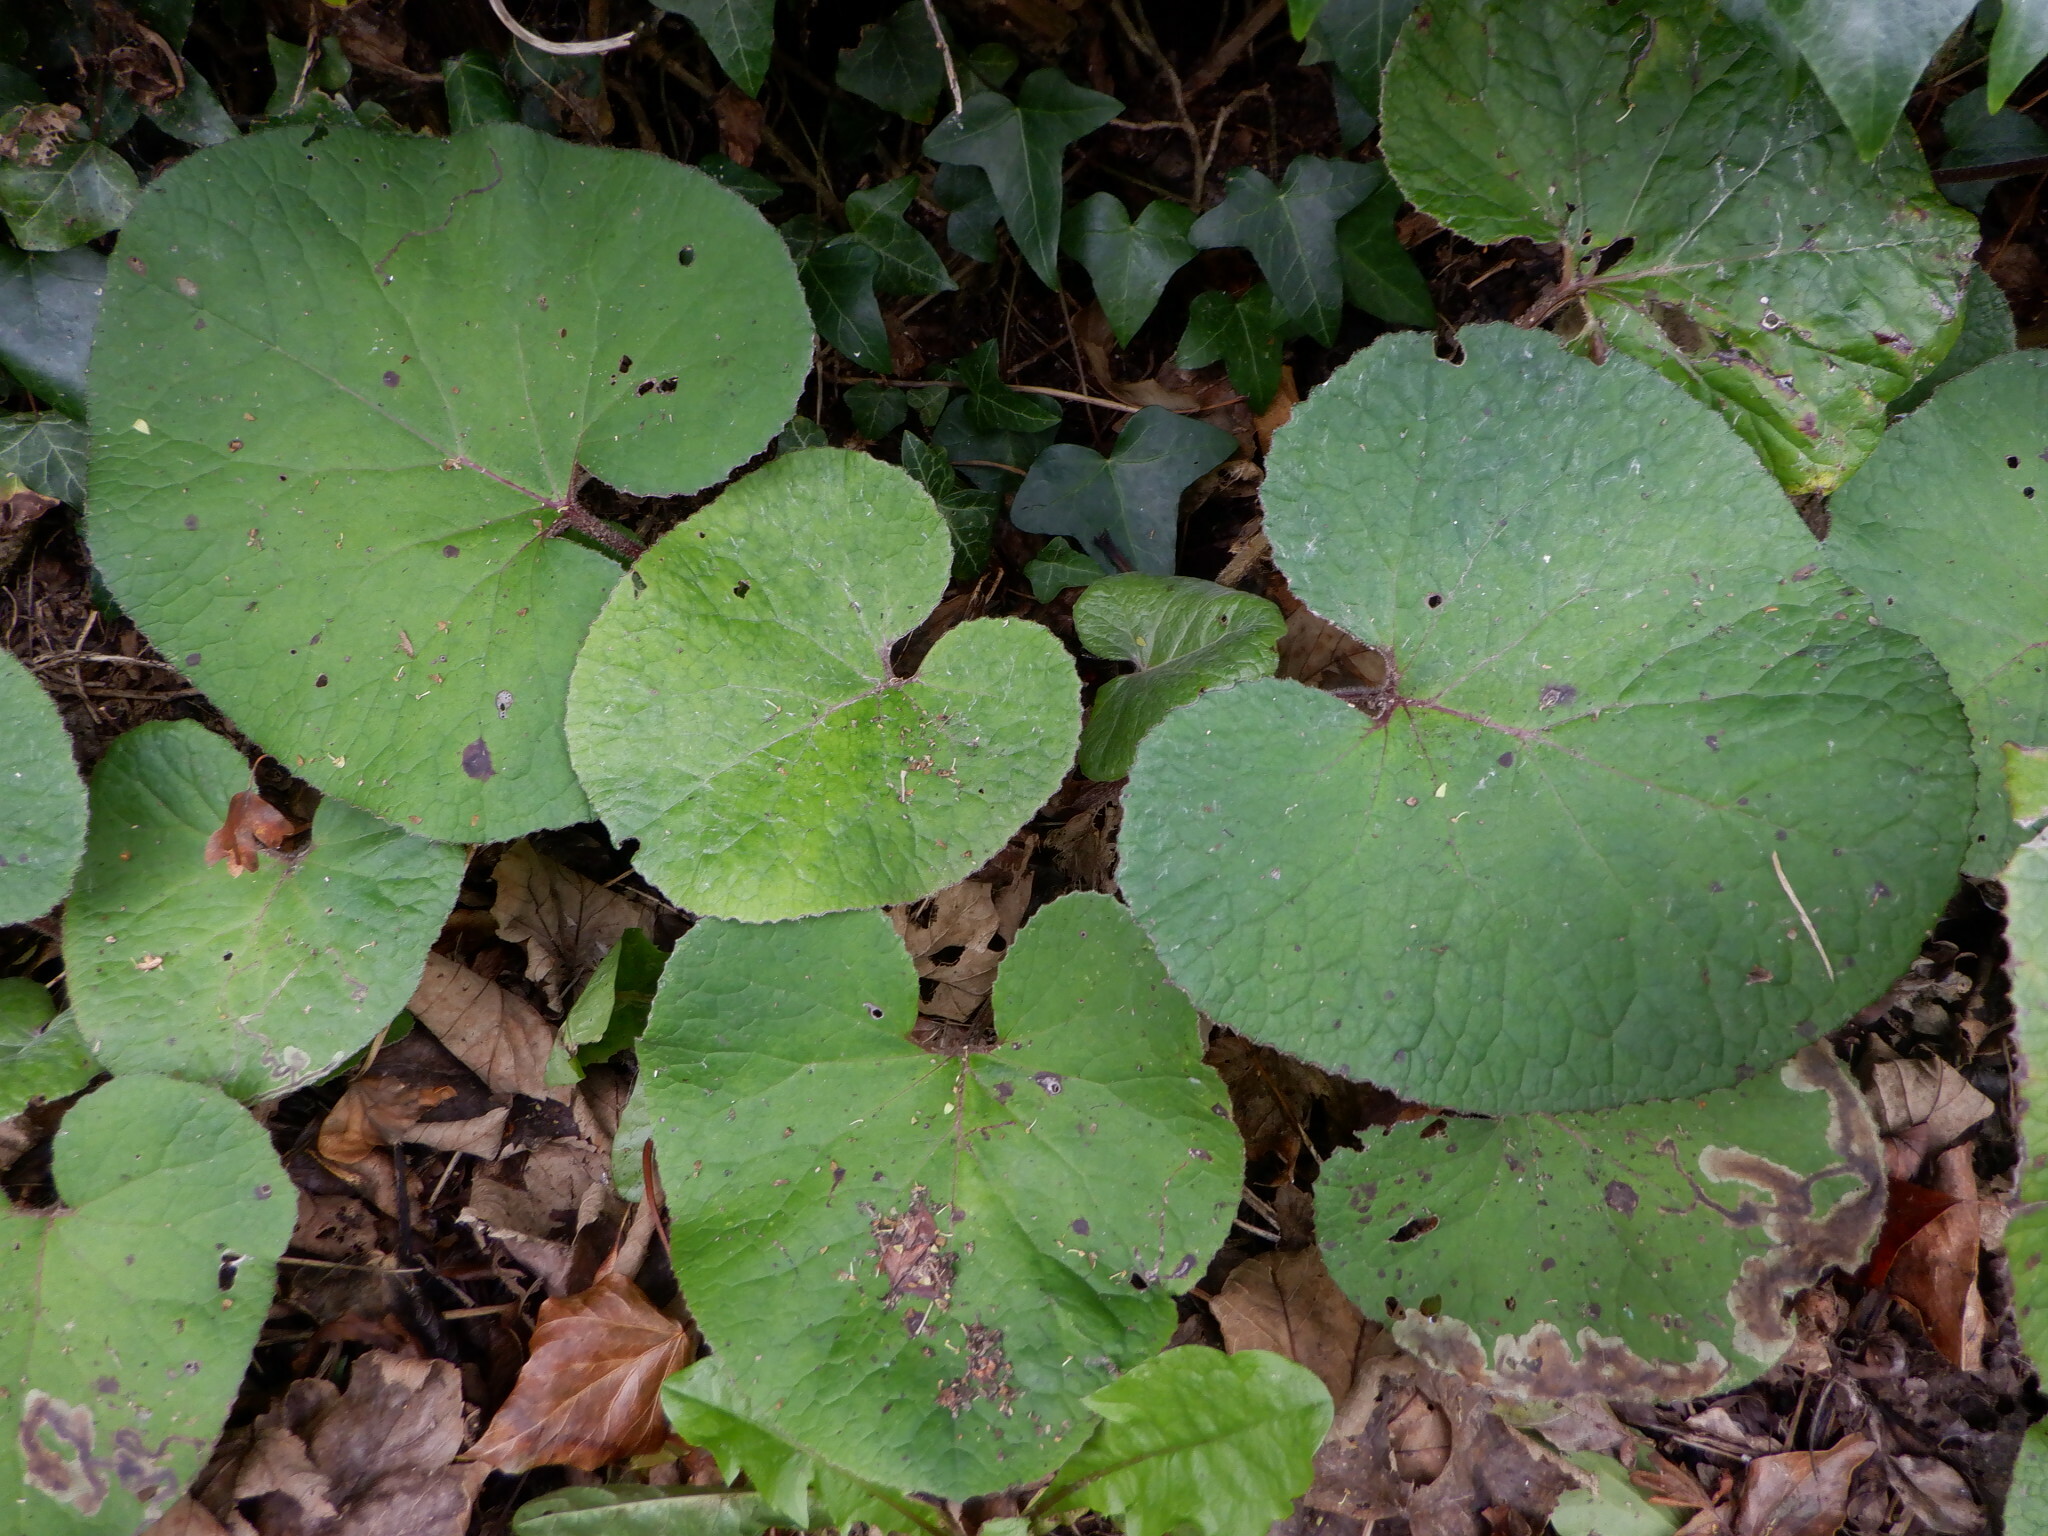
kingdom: Plantae
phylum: Tracheophyta
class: Magnoliopsida
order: Asterales
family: Asteraceae
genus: Petasites
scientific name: Petasites pyrenaicus
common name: Winter heliotrope
